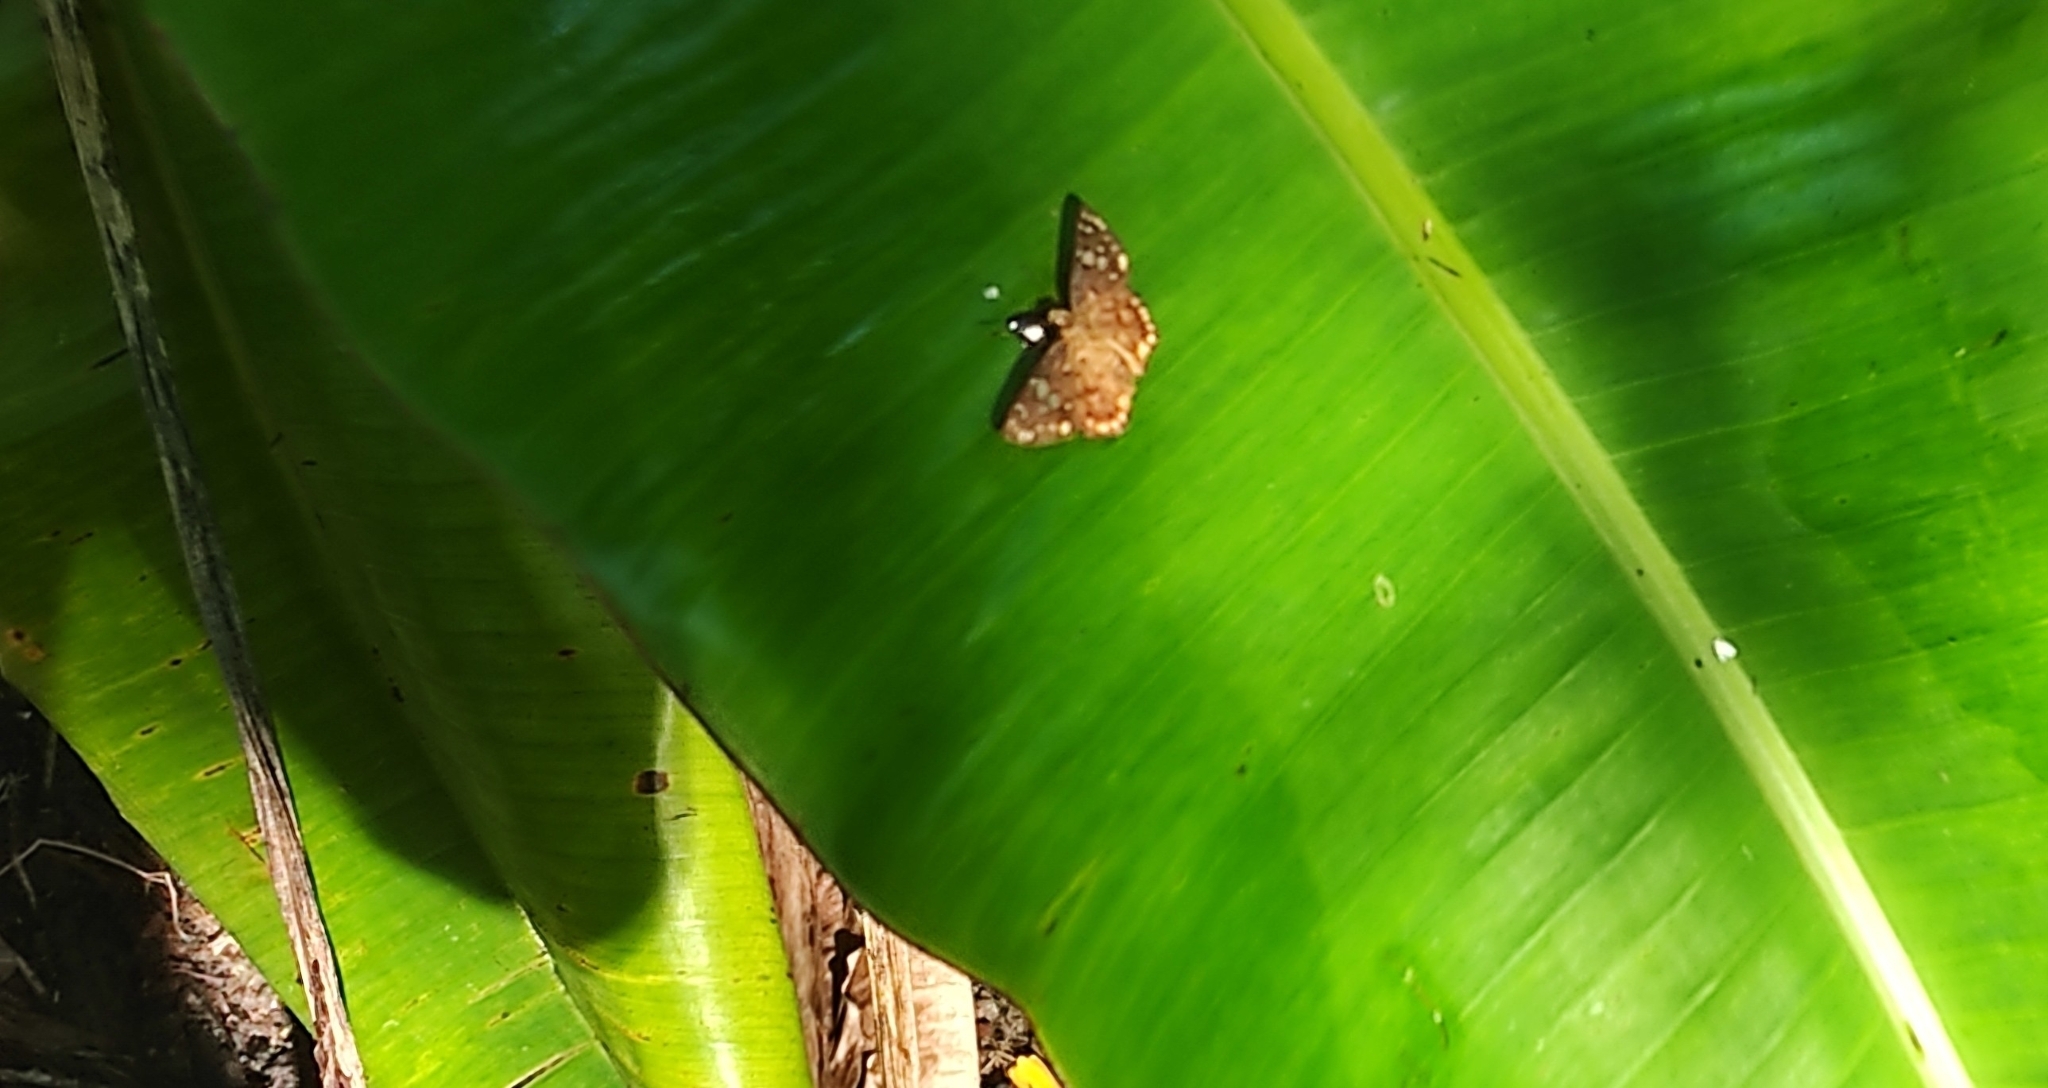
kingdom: Animalia
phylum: Arthropoda
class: Insecta
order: Lepidoptera
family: Hesperiidae
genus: Coladenia
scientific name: Coladenia
